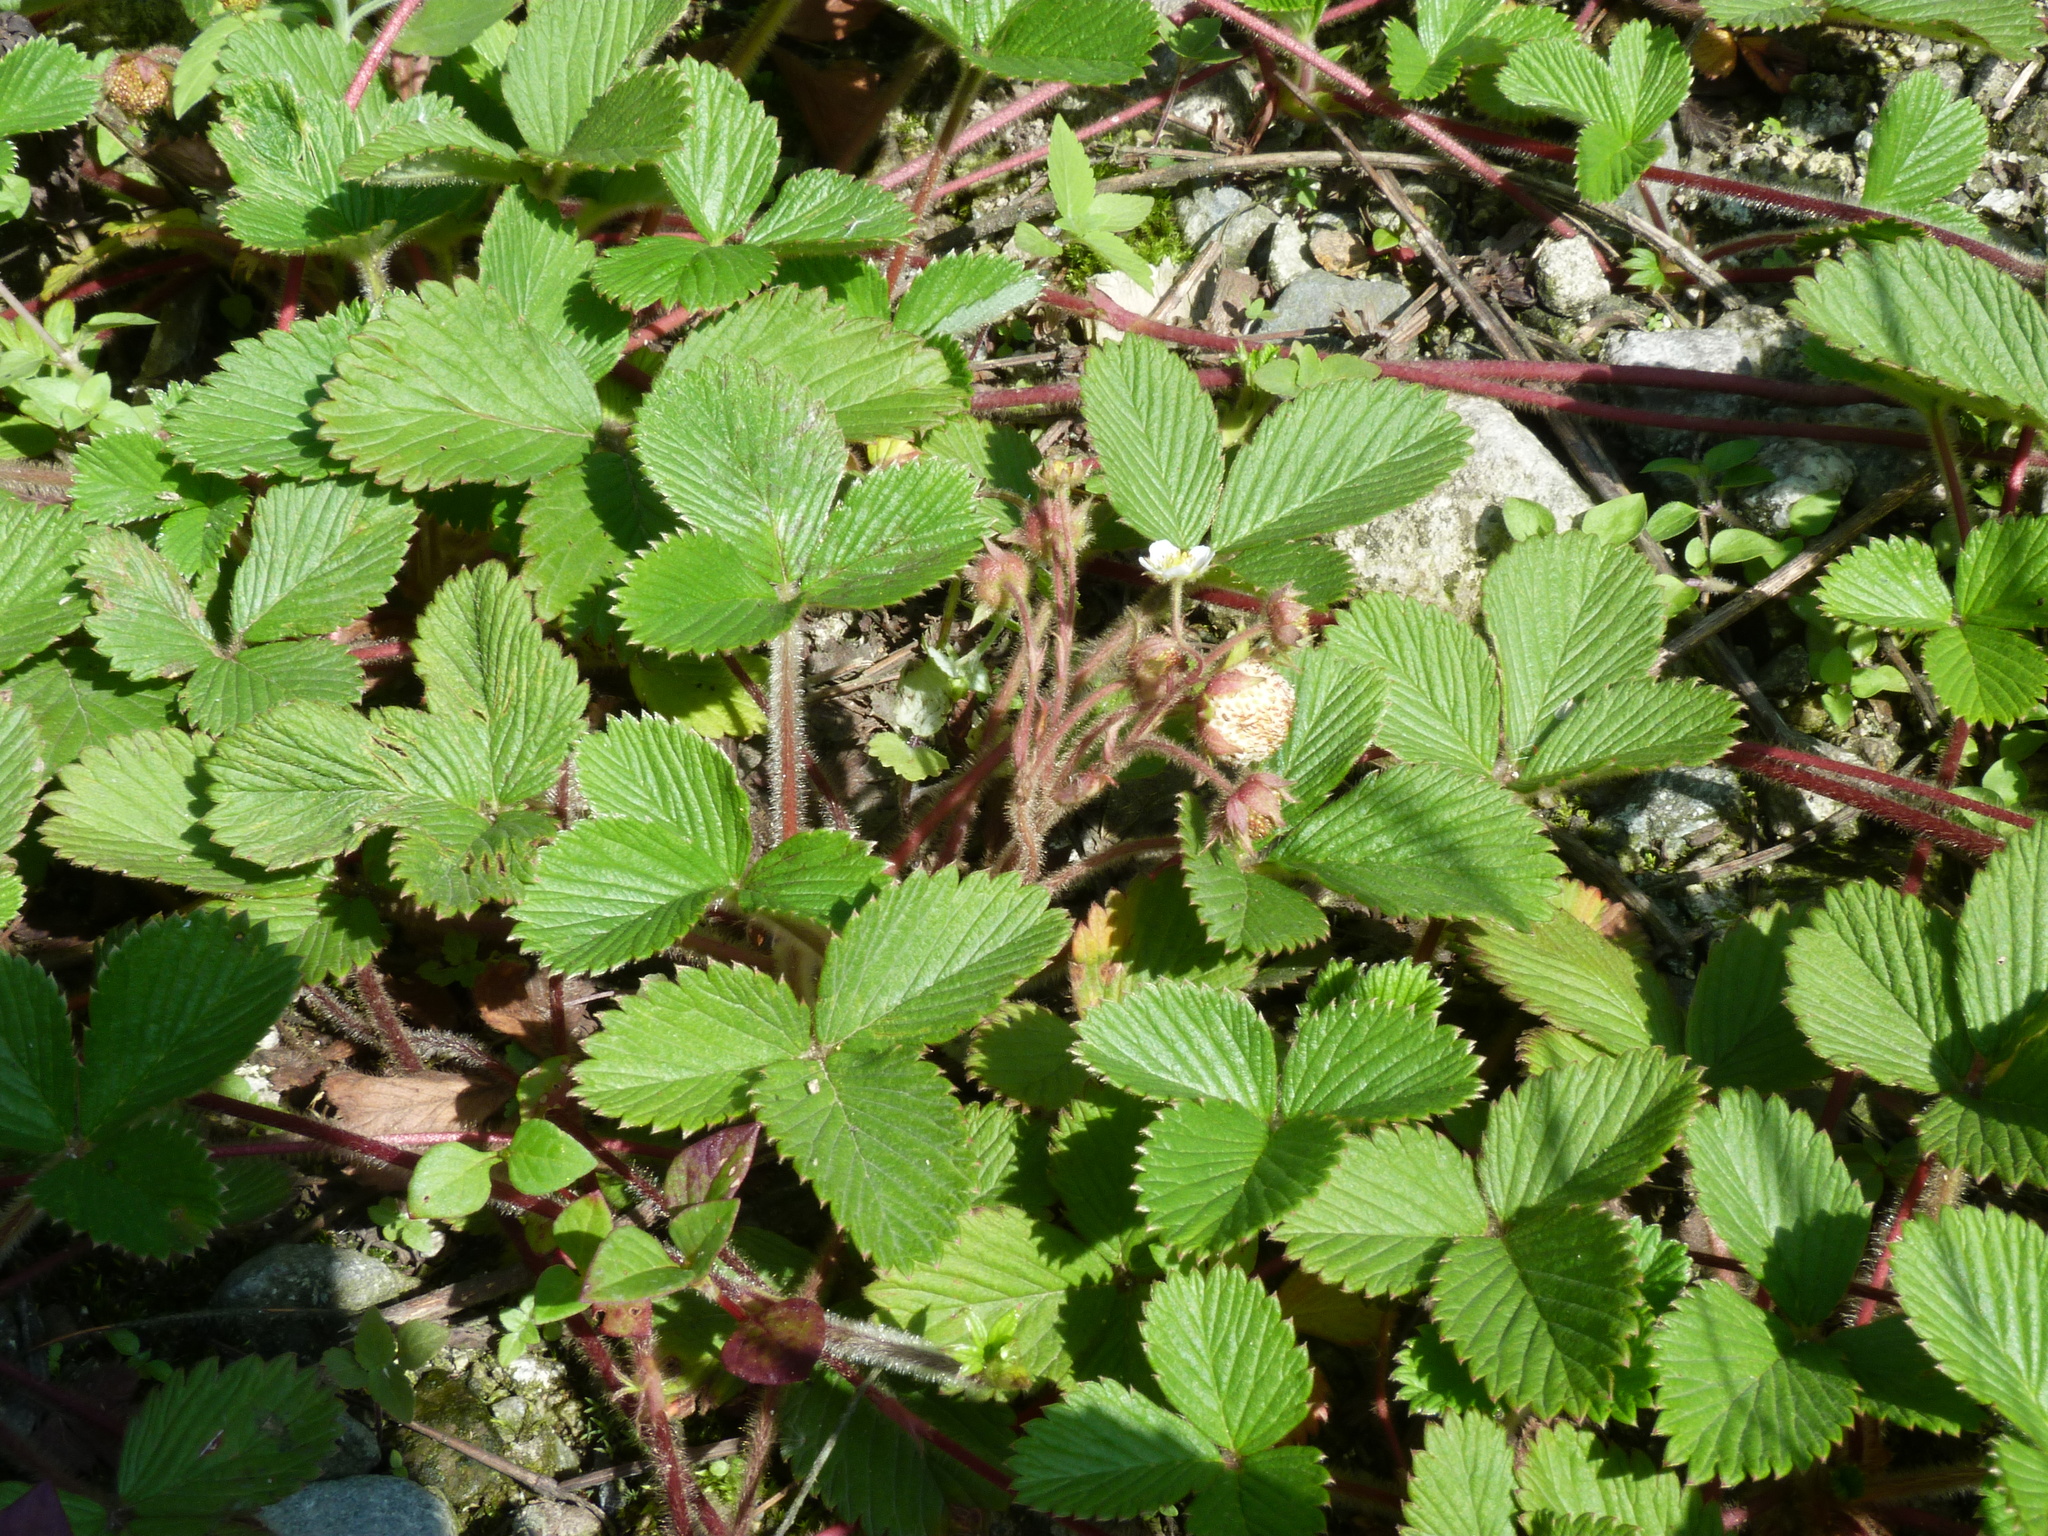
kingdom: Plantae
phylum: Tracheophyta
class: Magnoliopsida
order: Rosales
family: Rosaceae
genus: Fragaria
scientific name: Fragaria nilgerrensis
